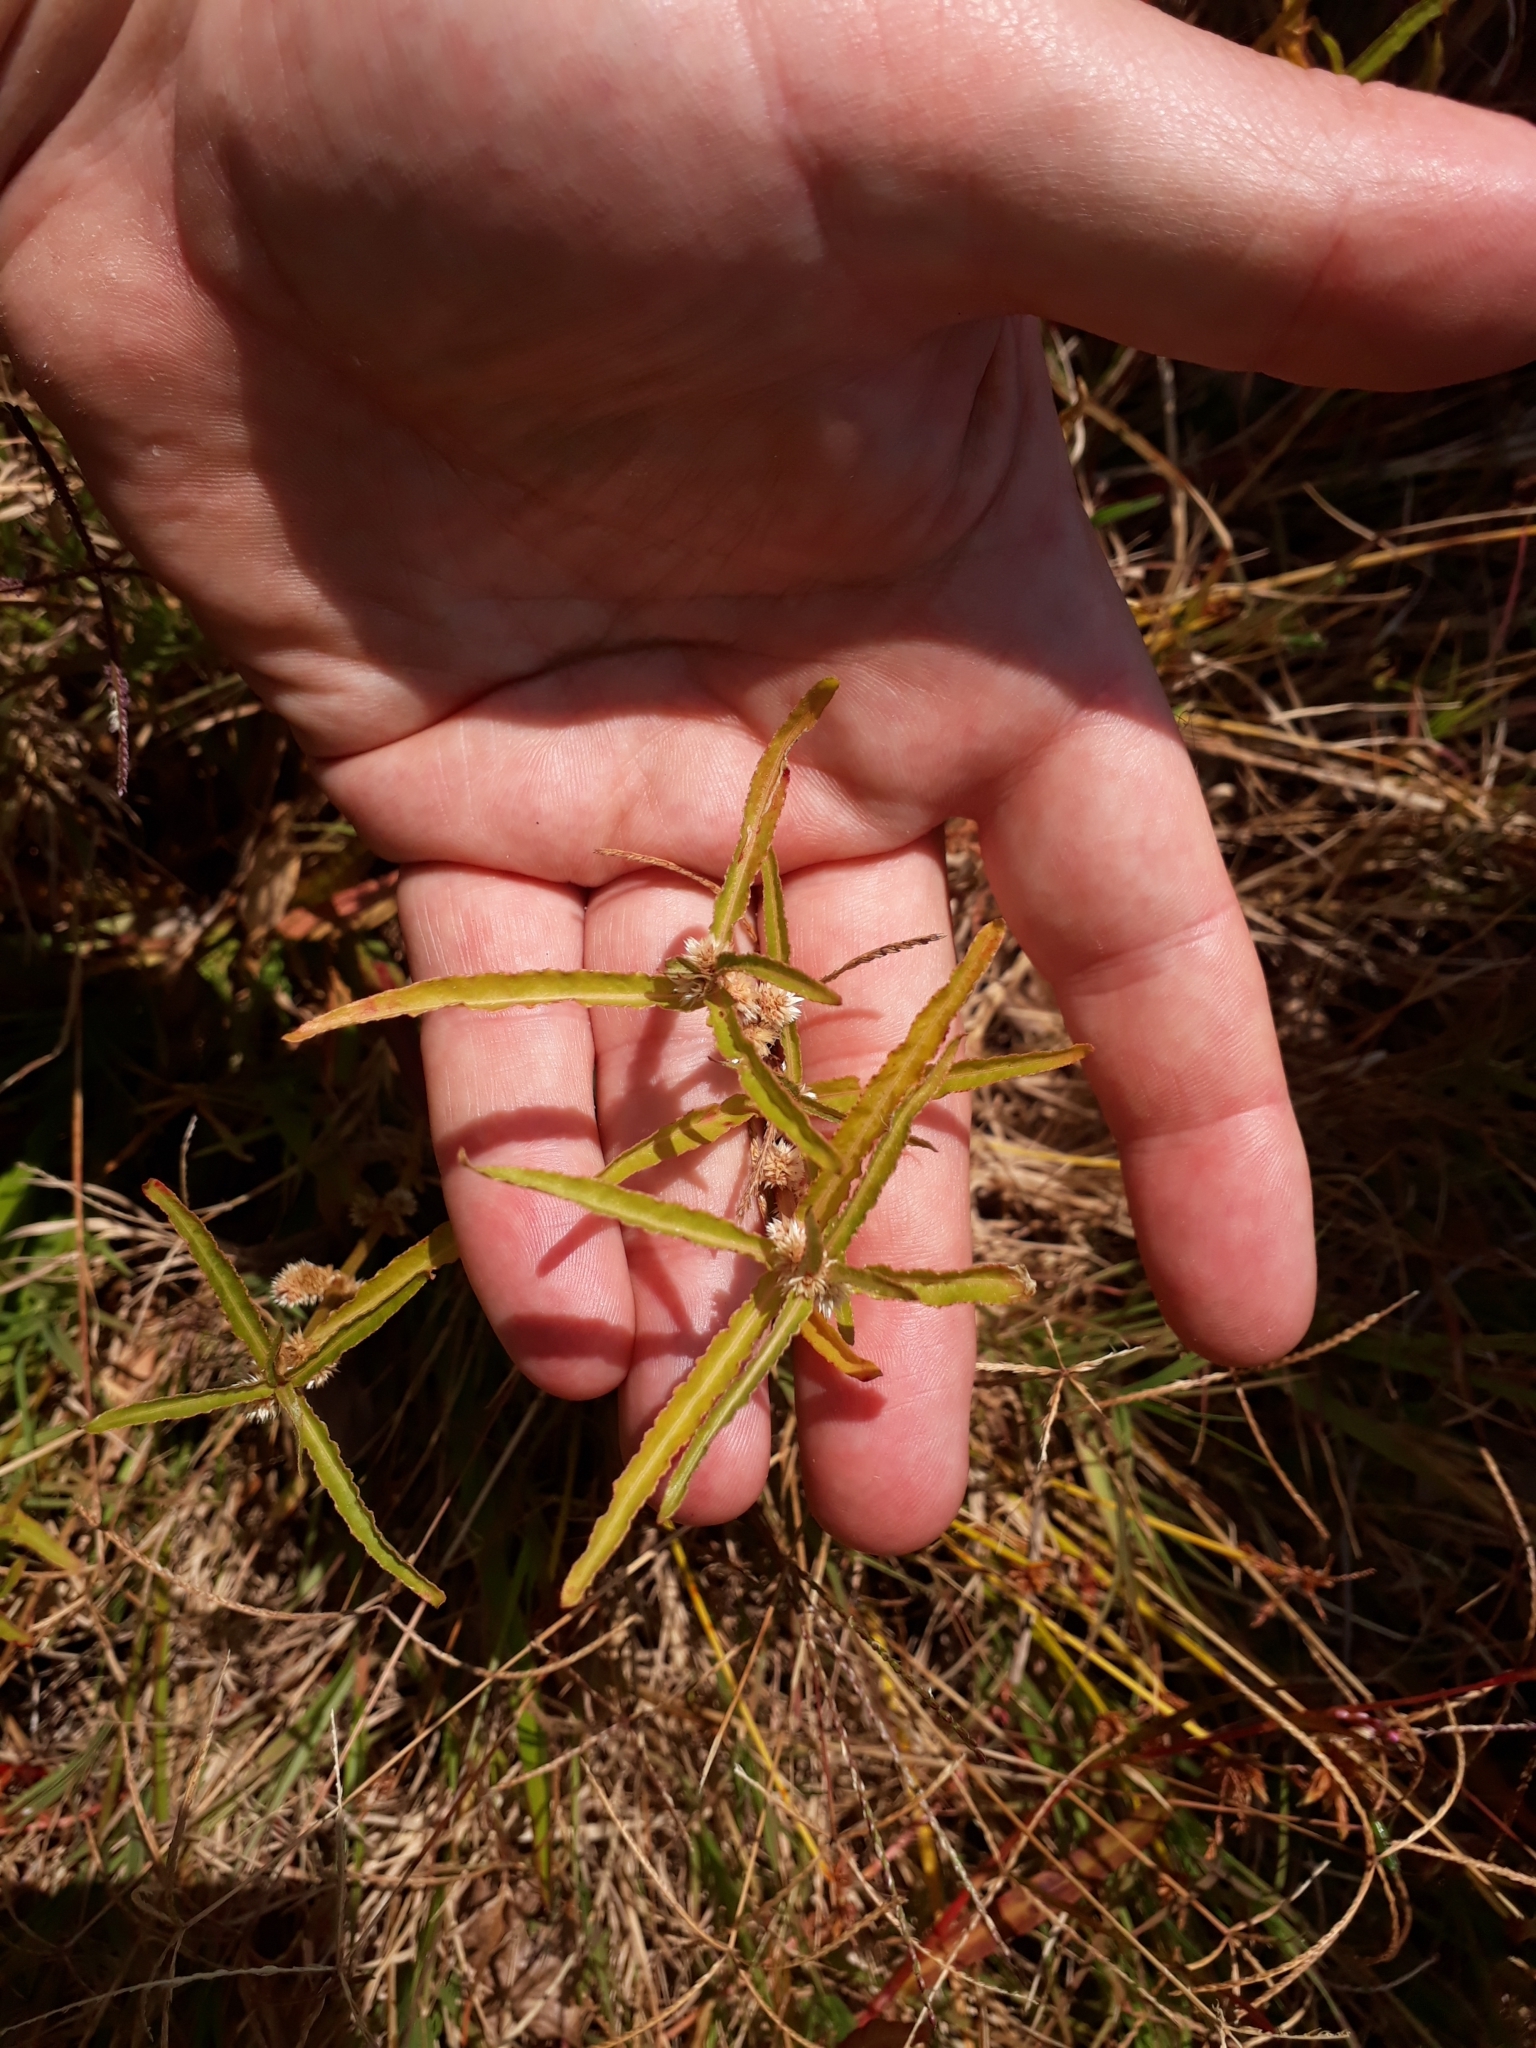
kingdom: Plantae
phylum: Tracheophyta
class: Magnoliopsida
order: Caryophyllales
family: Amaranthaceae
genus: Alternanthera
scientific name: Alternanthera denticulata
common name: Lesser joyweed
